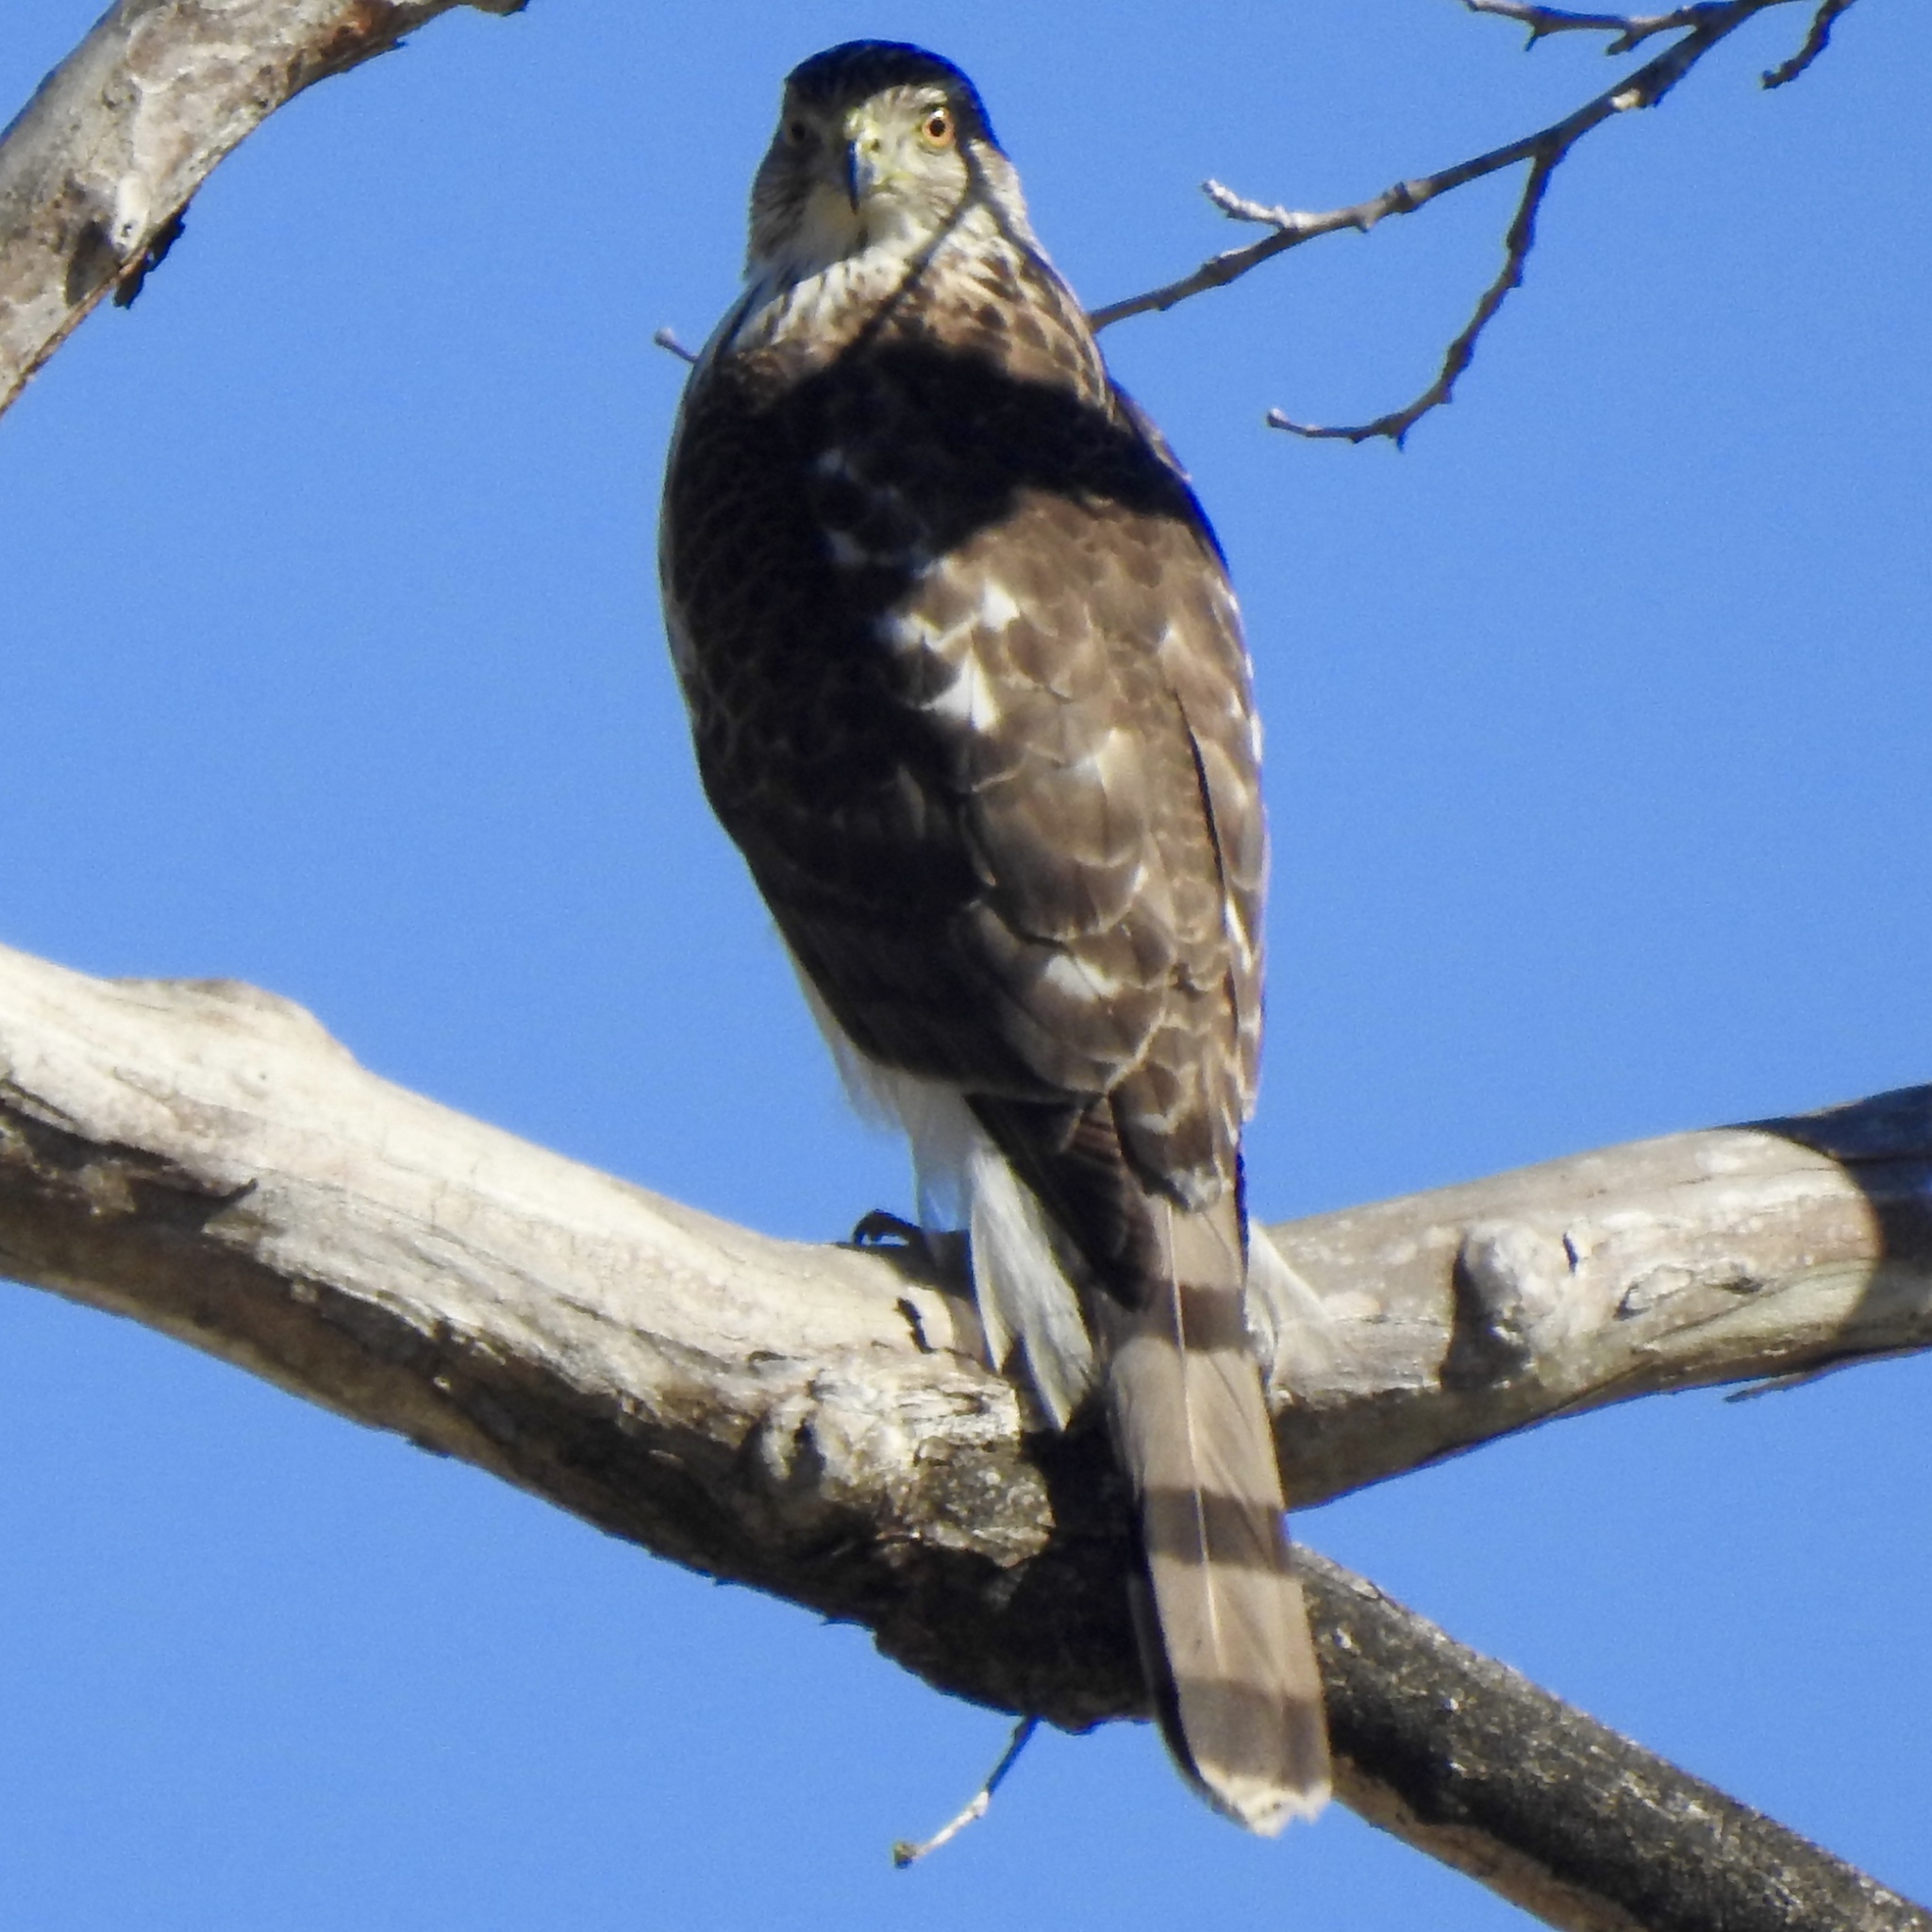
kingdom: Animalia
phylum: Chordata
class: Aves
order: Accipitriformes
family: Accipitridae
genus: Accipiter
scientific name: Accipiter cooperii
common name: Cooper's hawk
